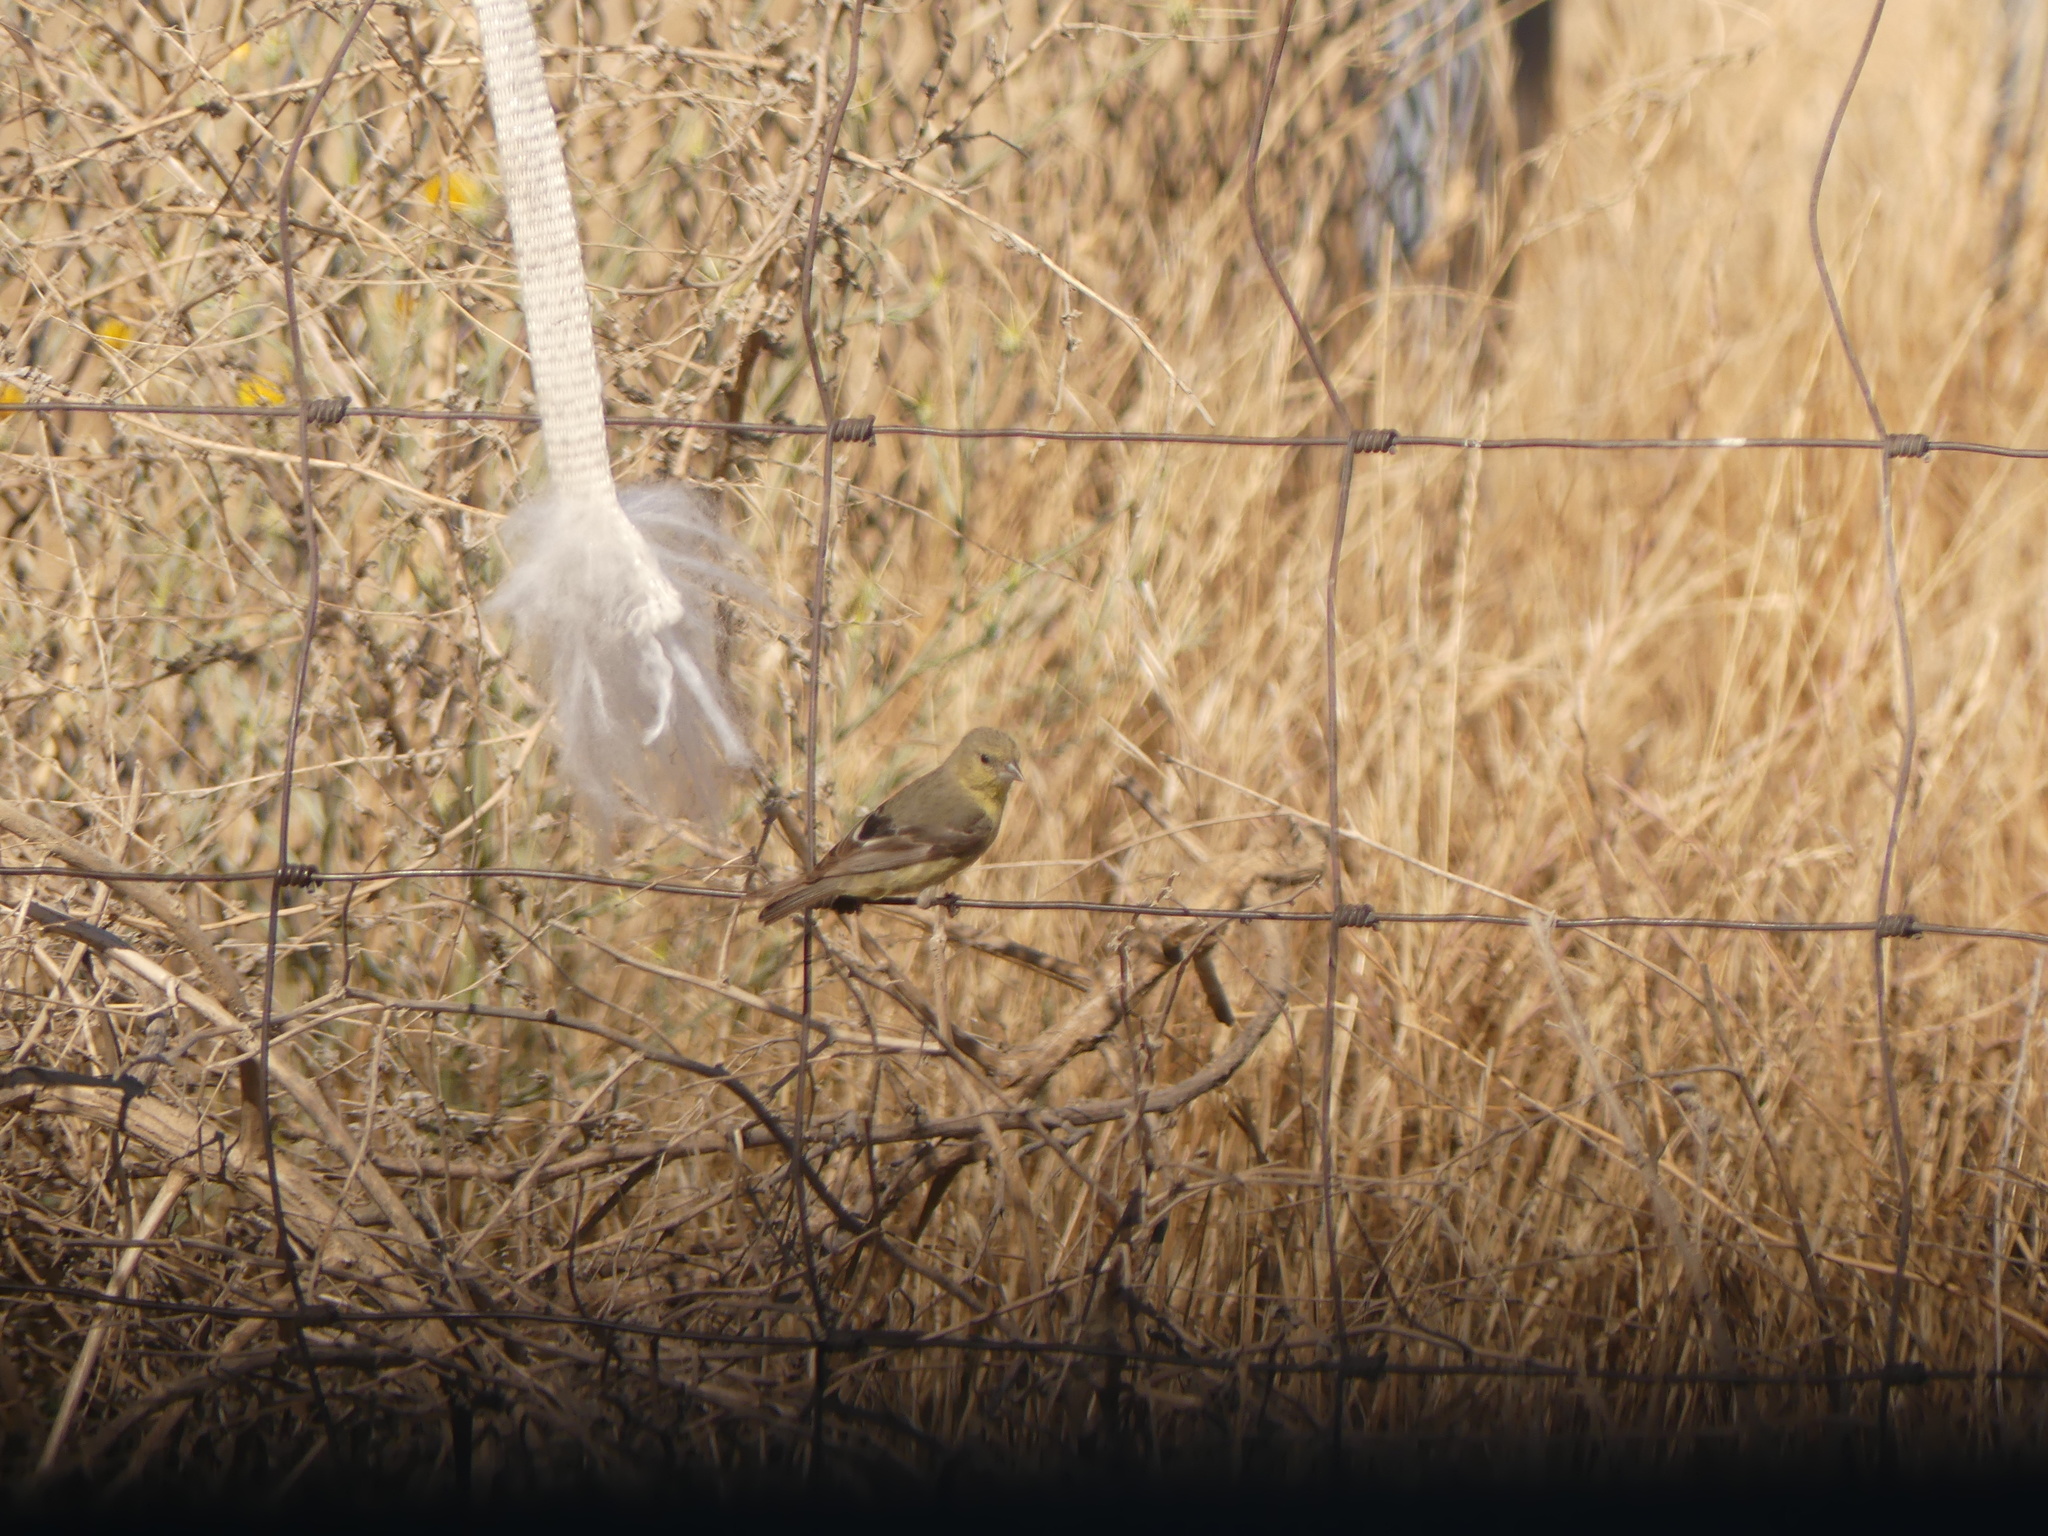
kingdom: Animalia
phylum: Chordata
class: Aves
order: Passeriformes
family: Fringillidae
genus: Spinus
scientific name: Spinus psaltria
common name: Lesser goldfinch
